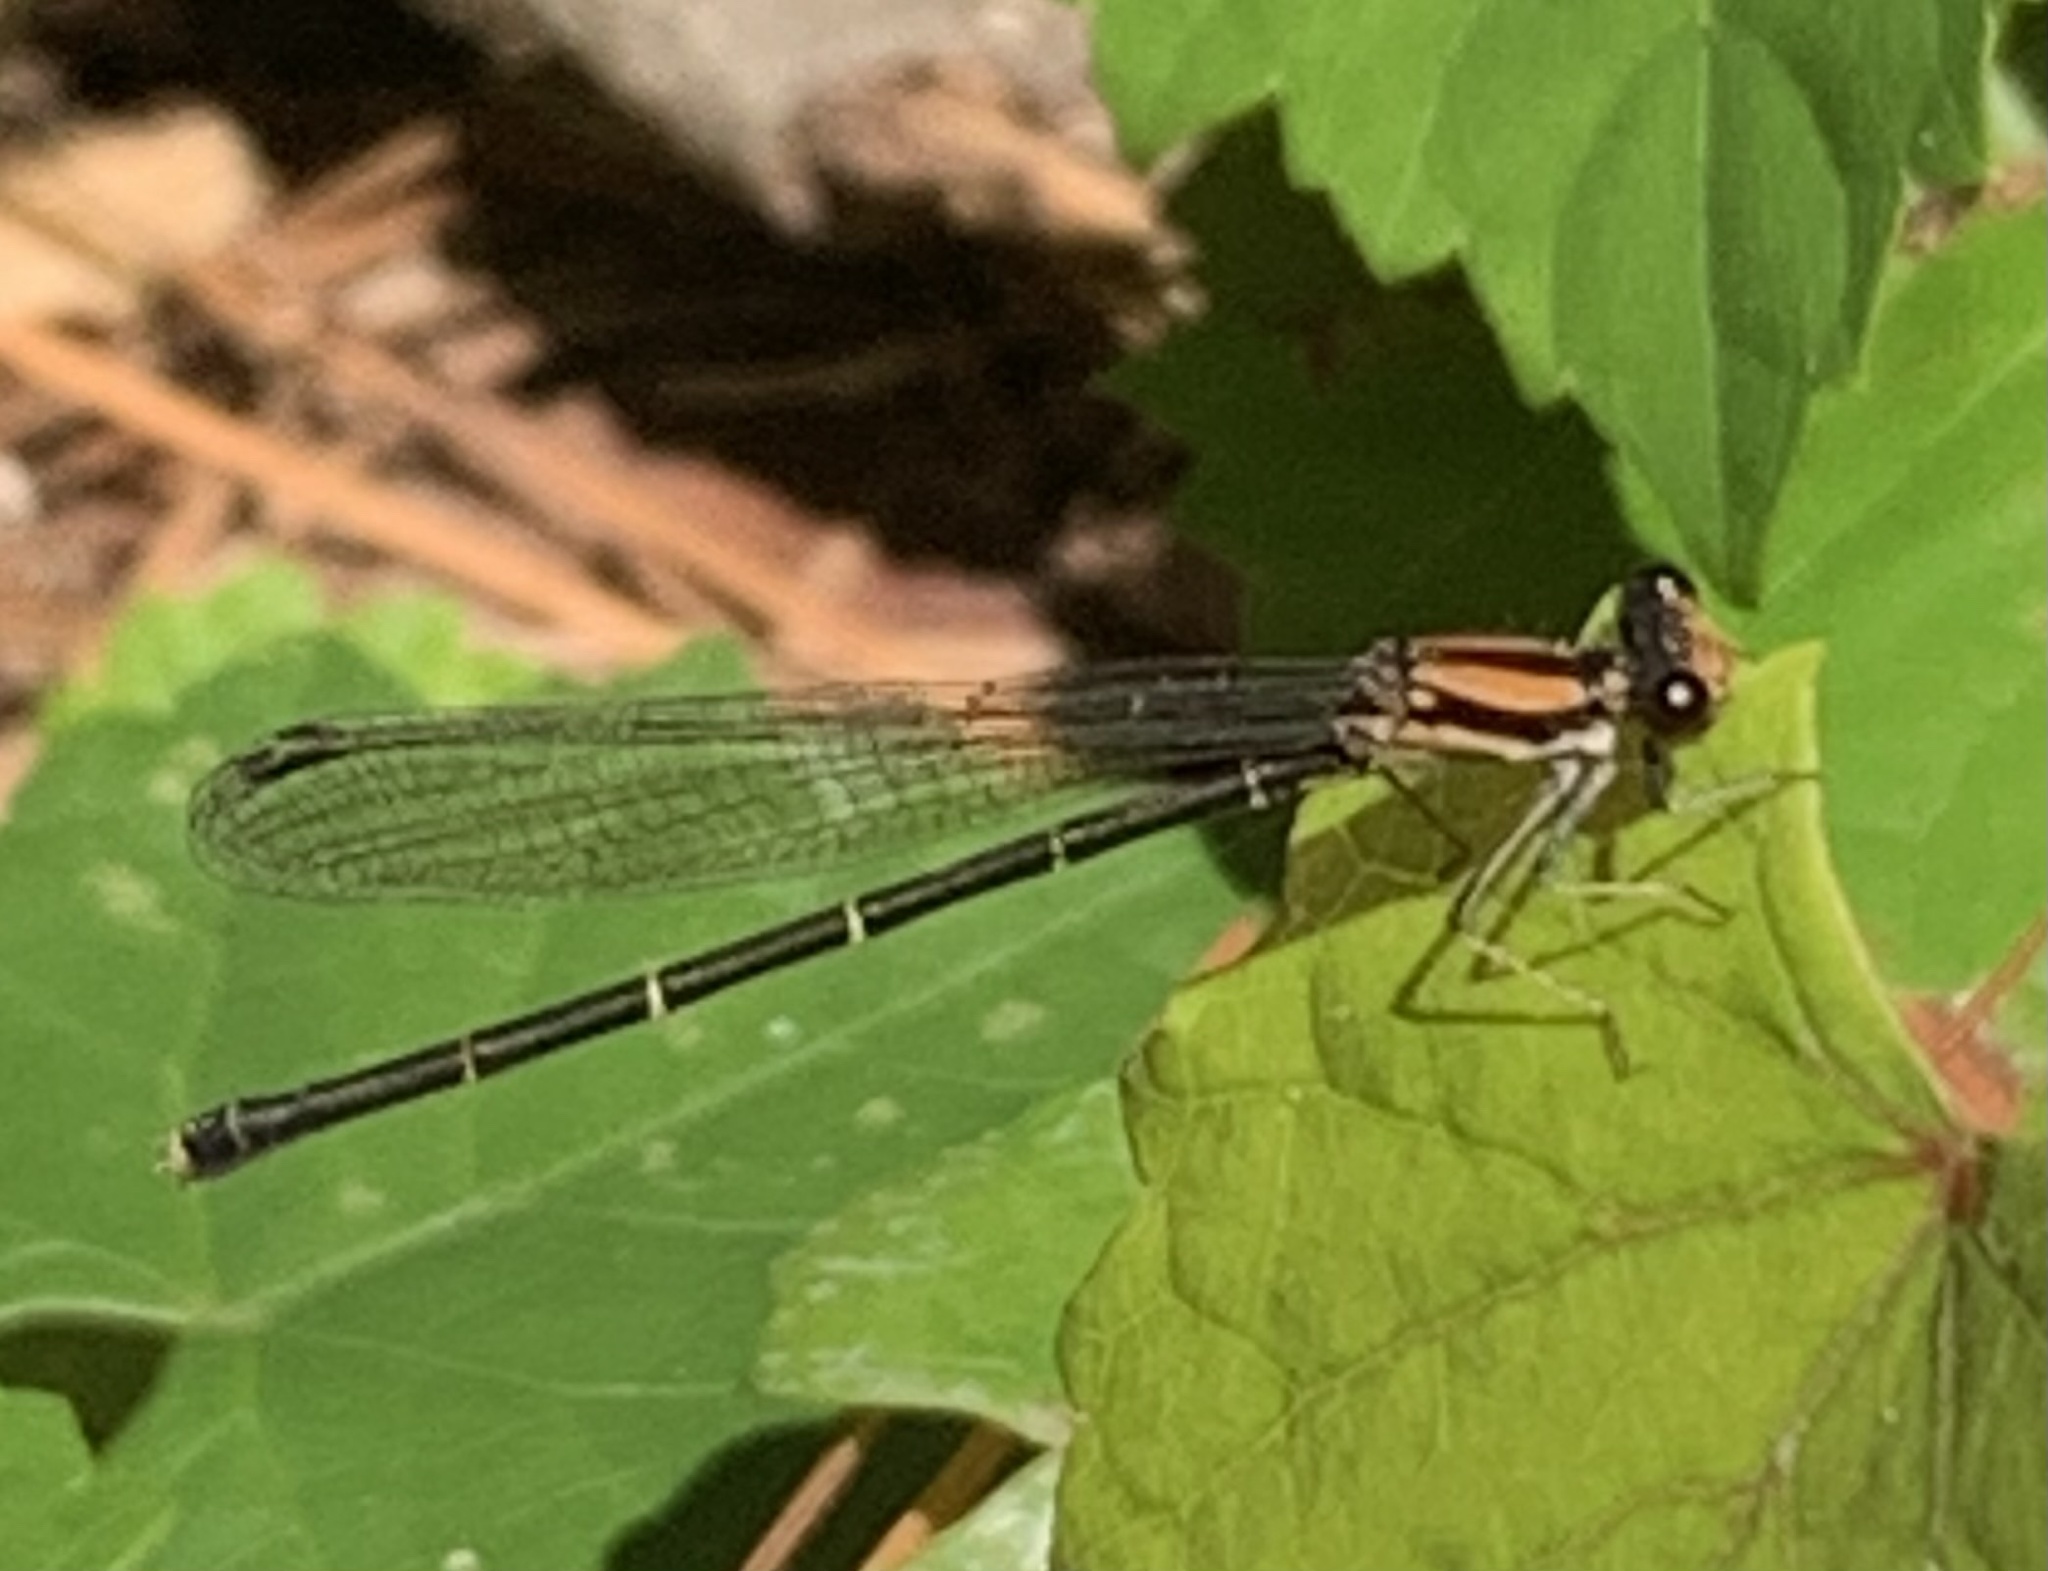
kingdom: Animalia
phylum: Arthropoda
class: Insecta
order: Odonata
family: Coenagrionidae
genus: Argia
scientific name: Argia tibialis
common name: Blue-tipped dancer
